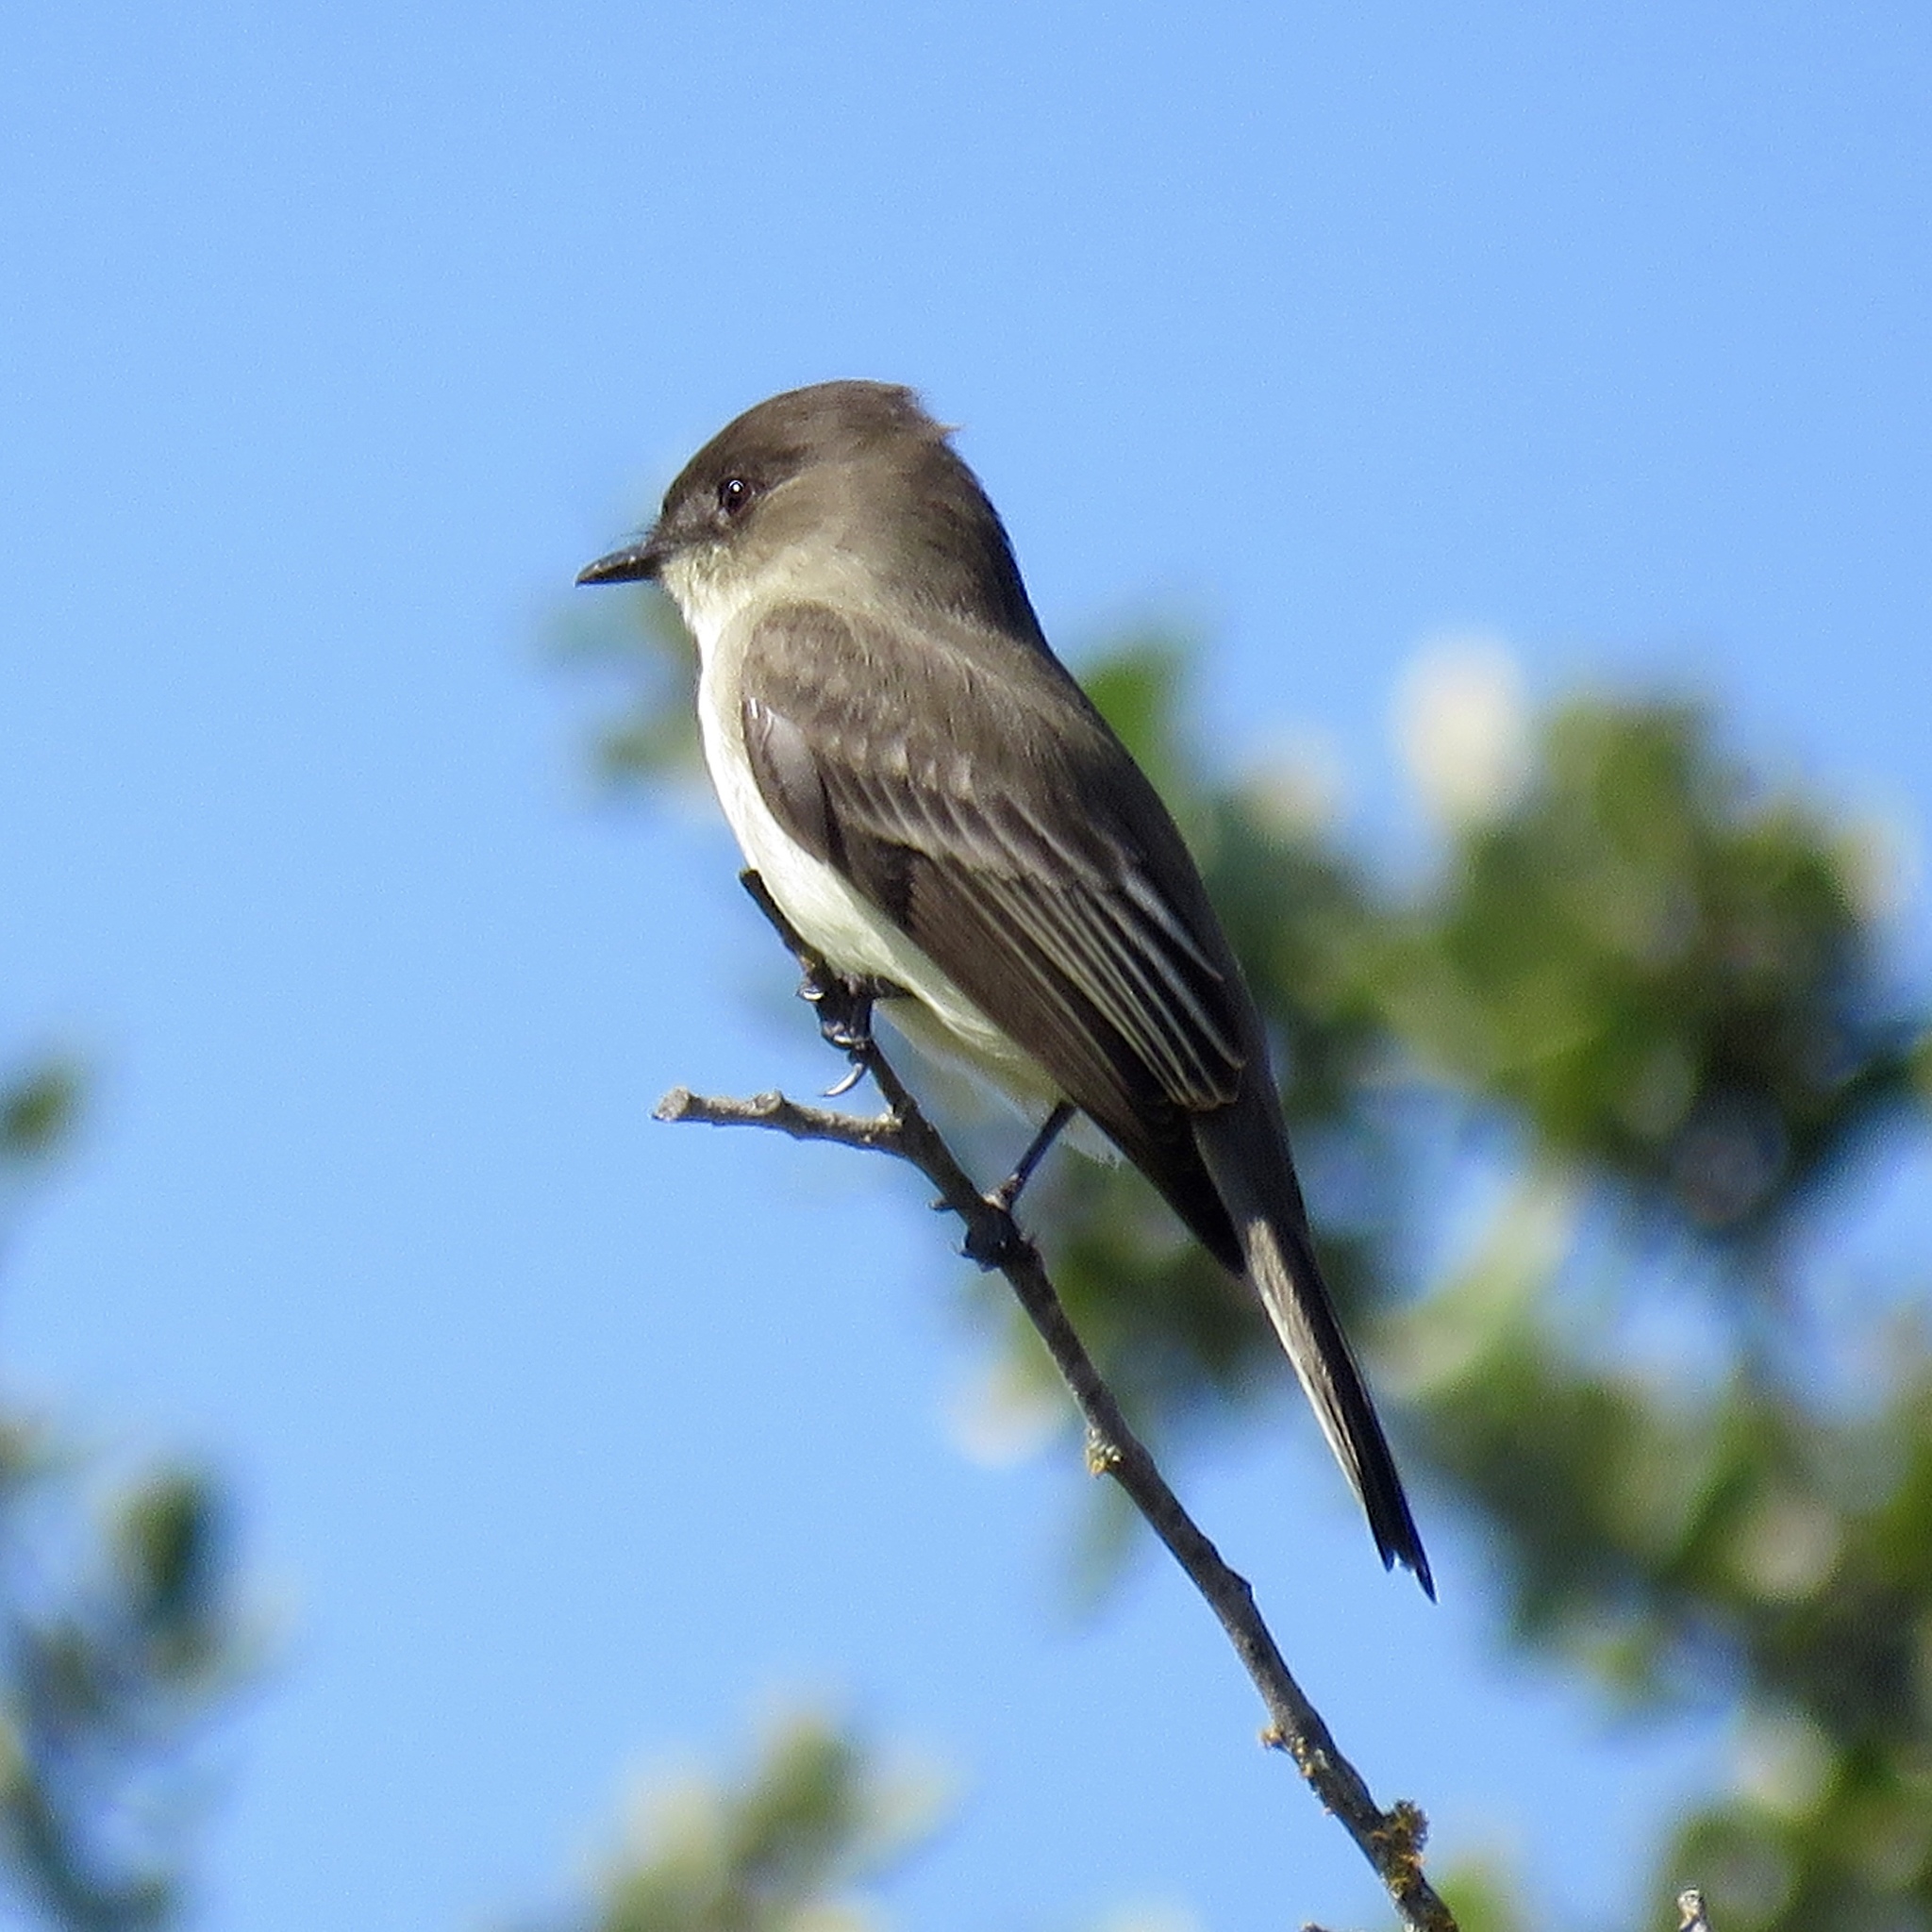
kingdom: Animalia
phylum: Chordata
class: Aves
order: Passeriformes
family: Tyrannidae
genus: Sayornis
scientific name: Sayornis phoebe
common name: Eastern phoebe
